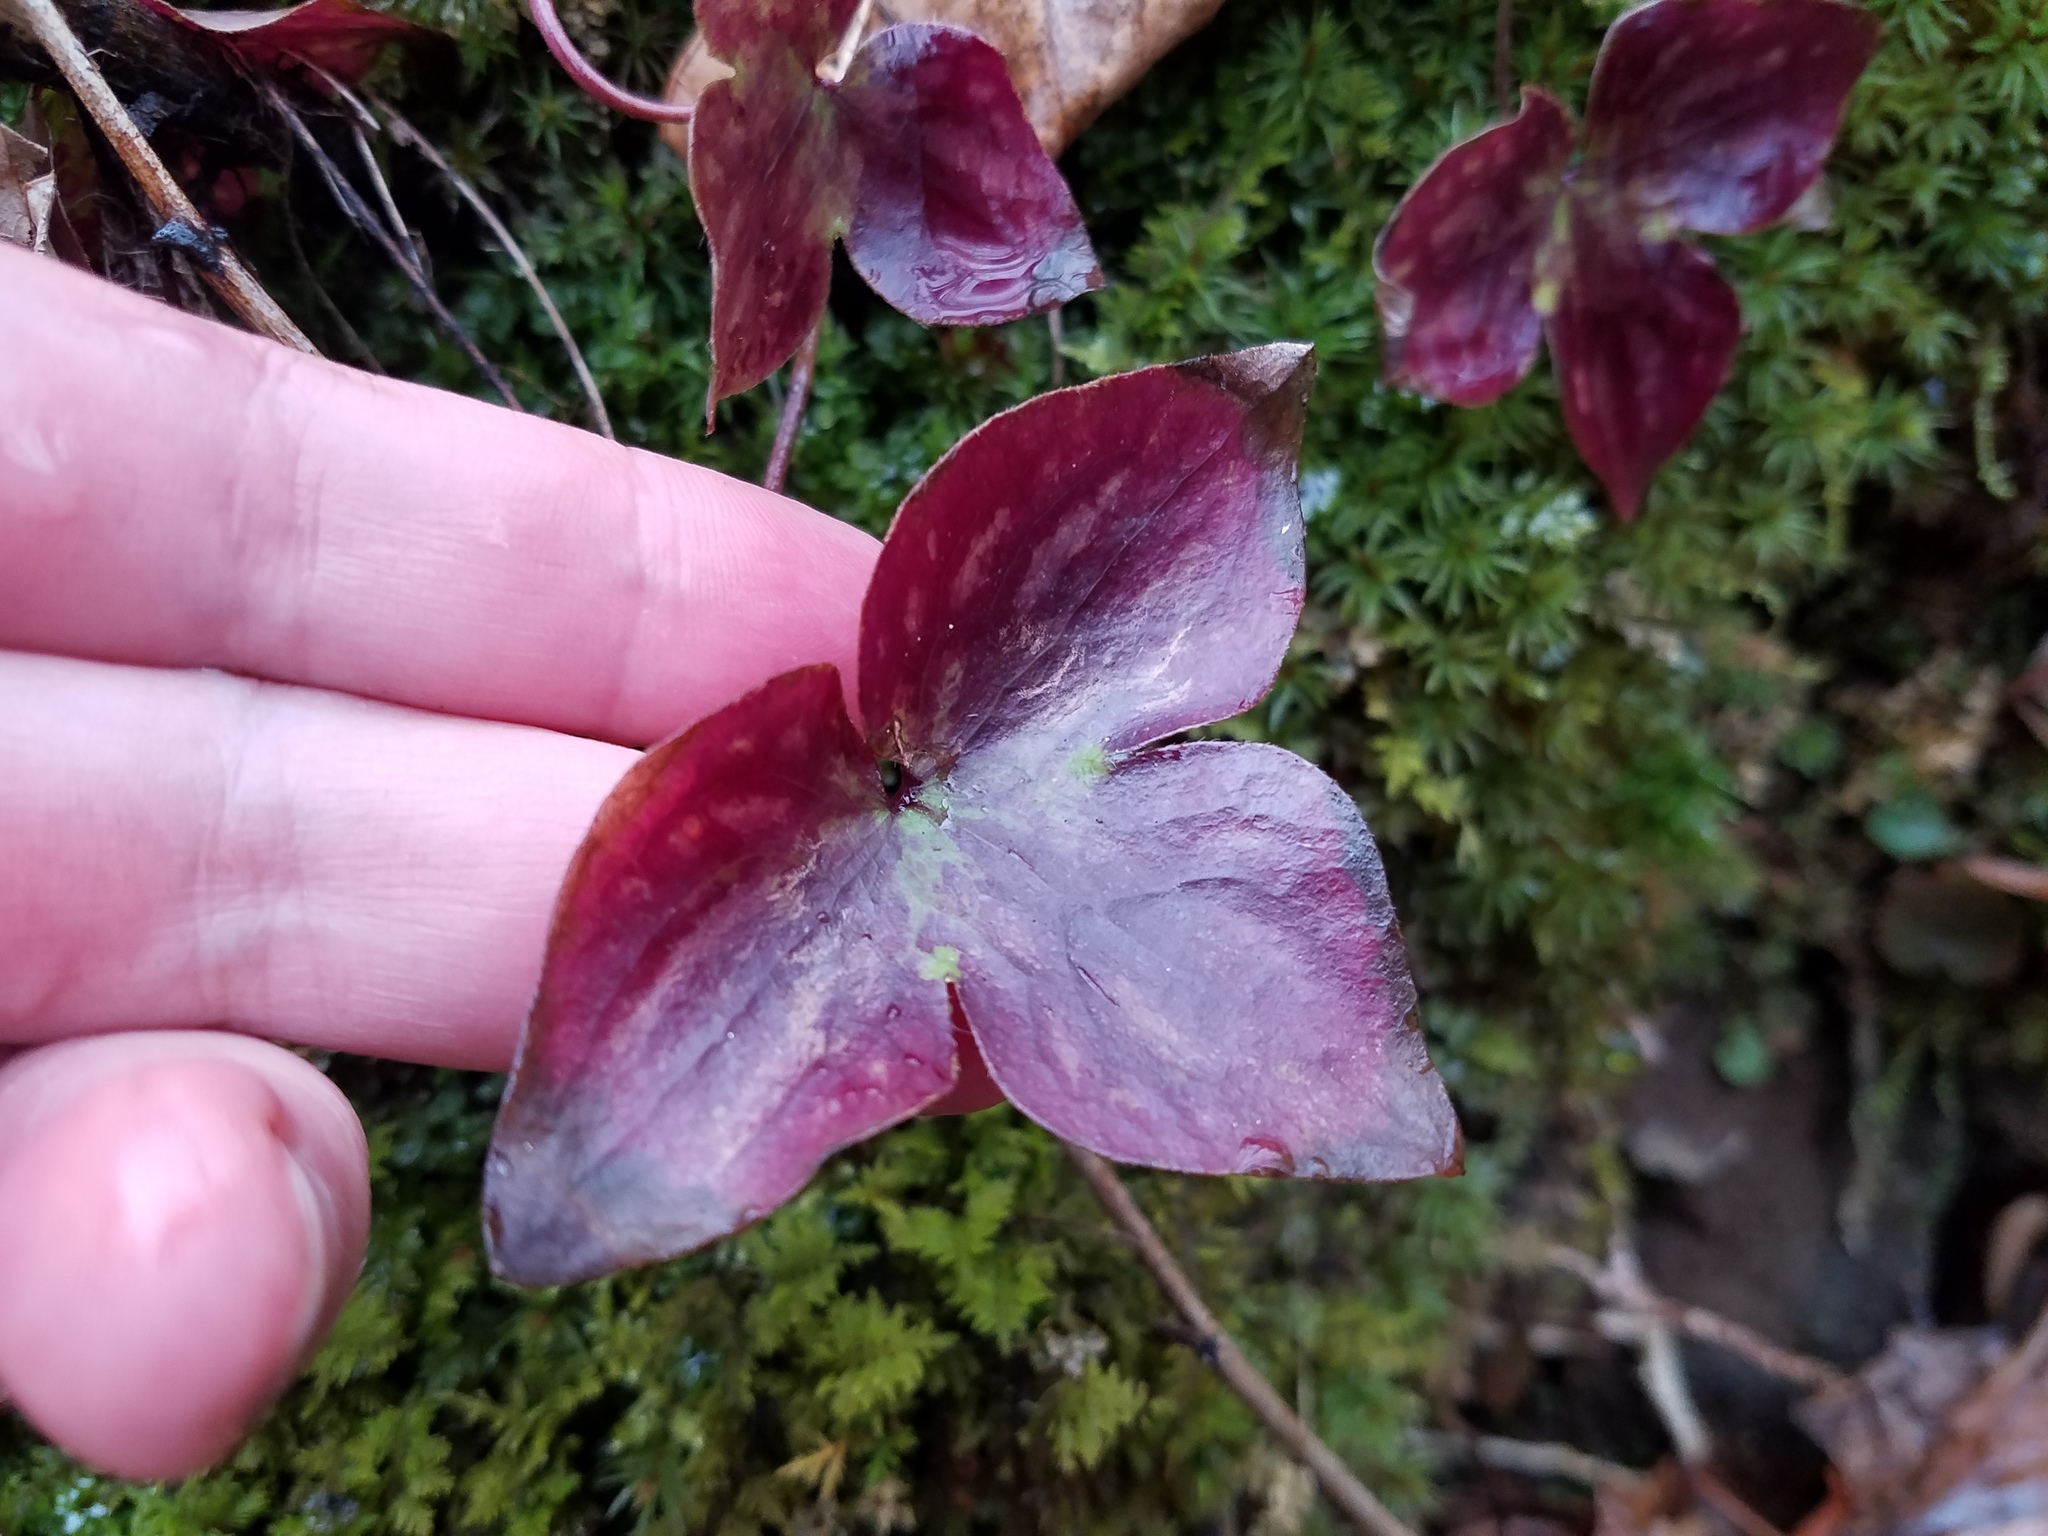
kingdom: Plantae
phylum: Tracheophyta
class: Magnoliopsida
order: Ranunculales
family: Ranunculaceae
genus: Hepatica
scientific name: Hepatica acutiloba
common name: Sharp-lobed hepatica
